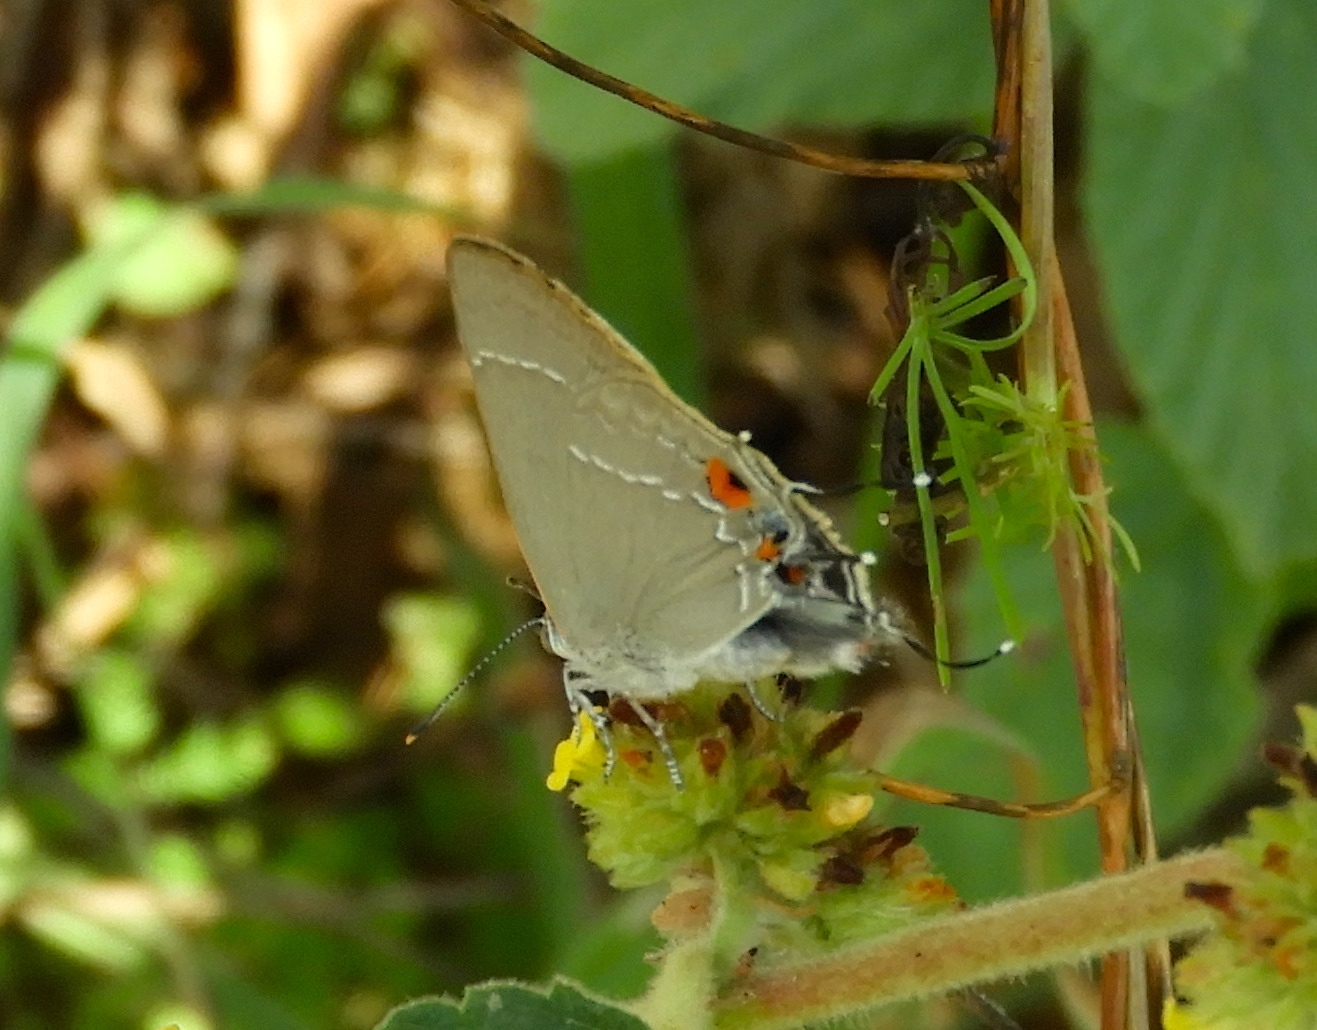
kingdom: Animalia
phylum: Arthropoda
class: Insecta
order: Lepidoptera
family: Lycaenidae
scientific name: Lycaenidae
